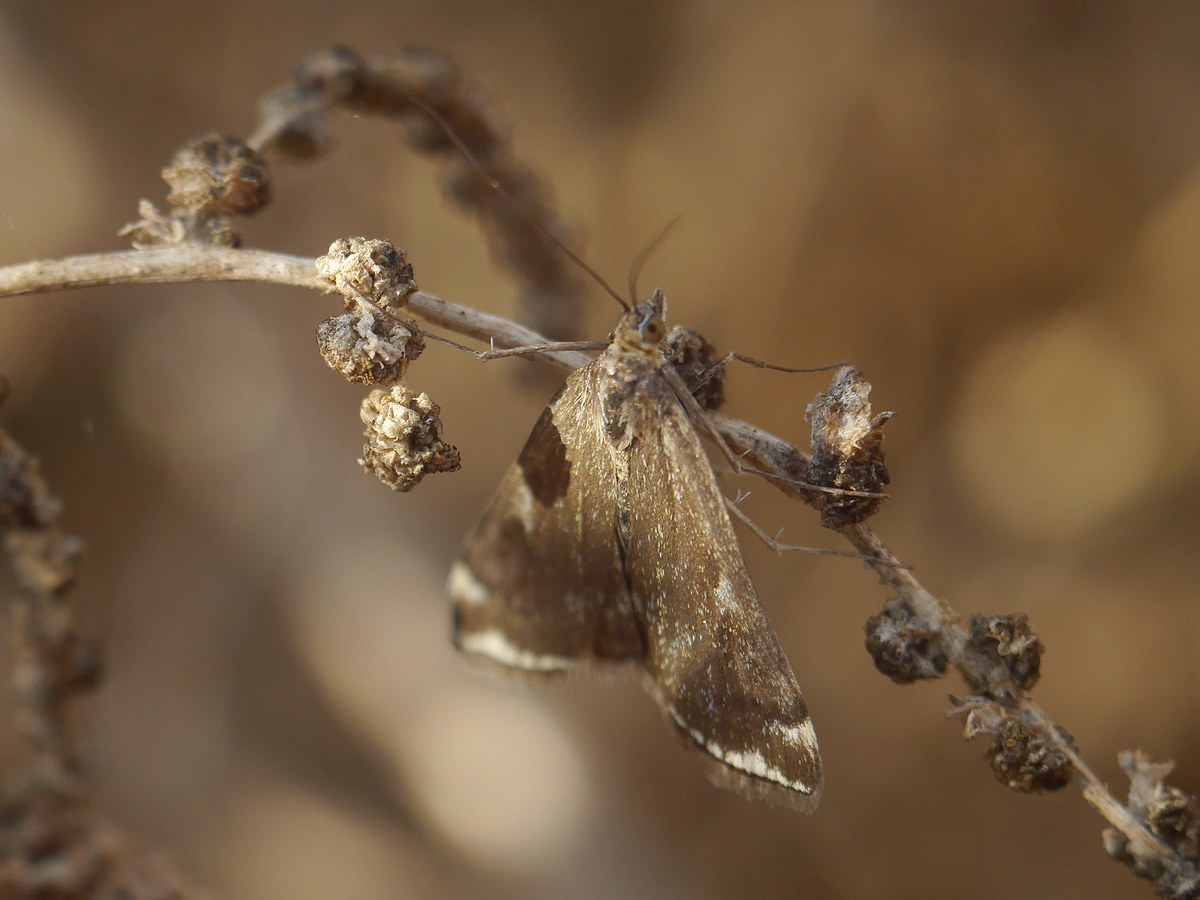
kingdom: Animalia
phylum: Arthropoda
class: Insecta
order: Lepidoptera
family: Crambidae
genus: Loxostege
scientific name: Loxostege sticticalis
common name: Crambid moth
